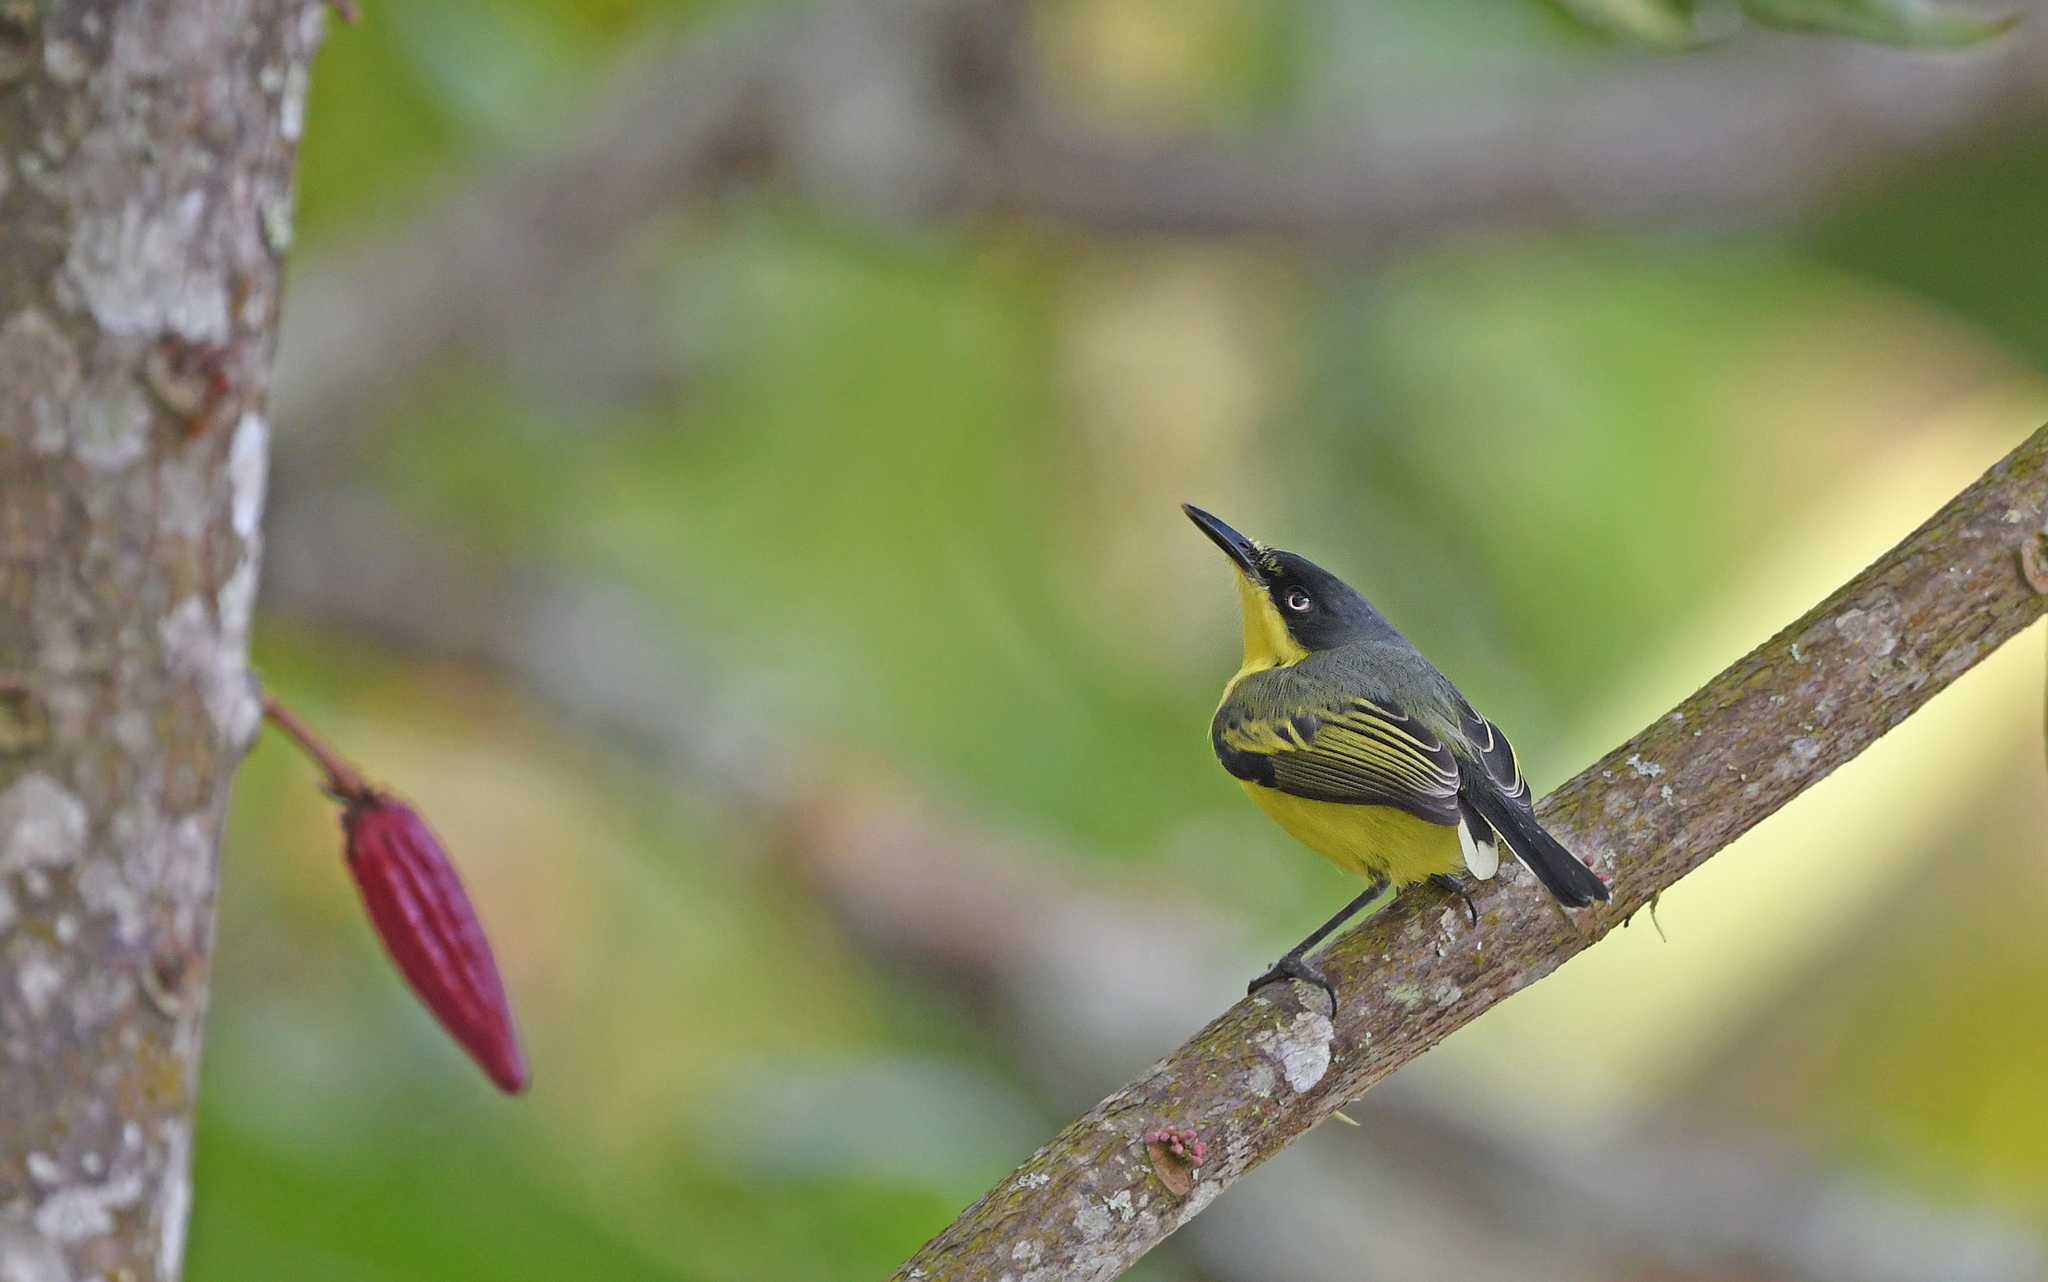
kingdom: Animalia
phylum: Chordata
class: Aves
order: Passeriformes
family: Tyrannidae
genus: Todirostrum
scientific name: Todirostrum cinereum
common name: Common tody-flycatcher
